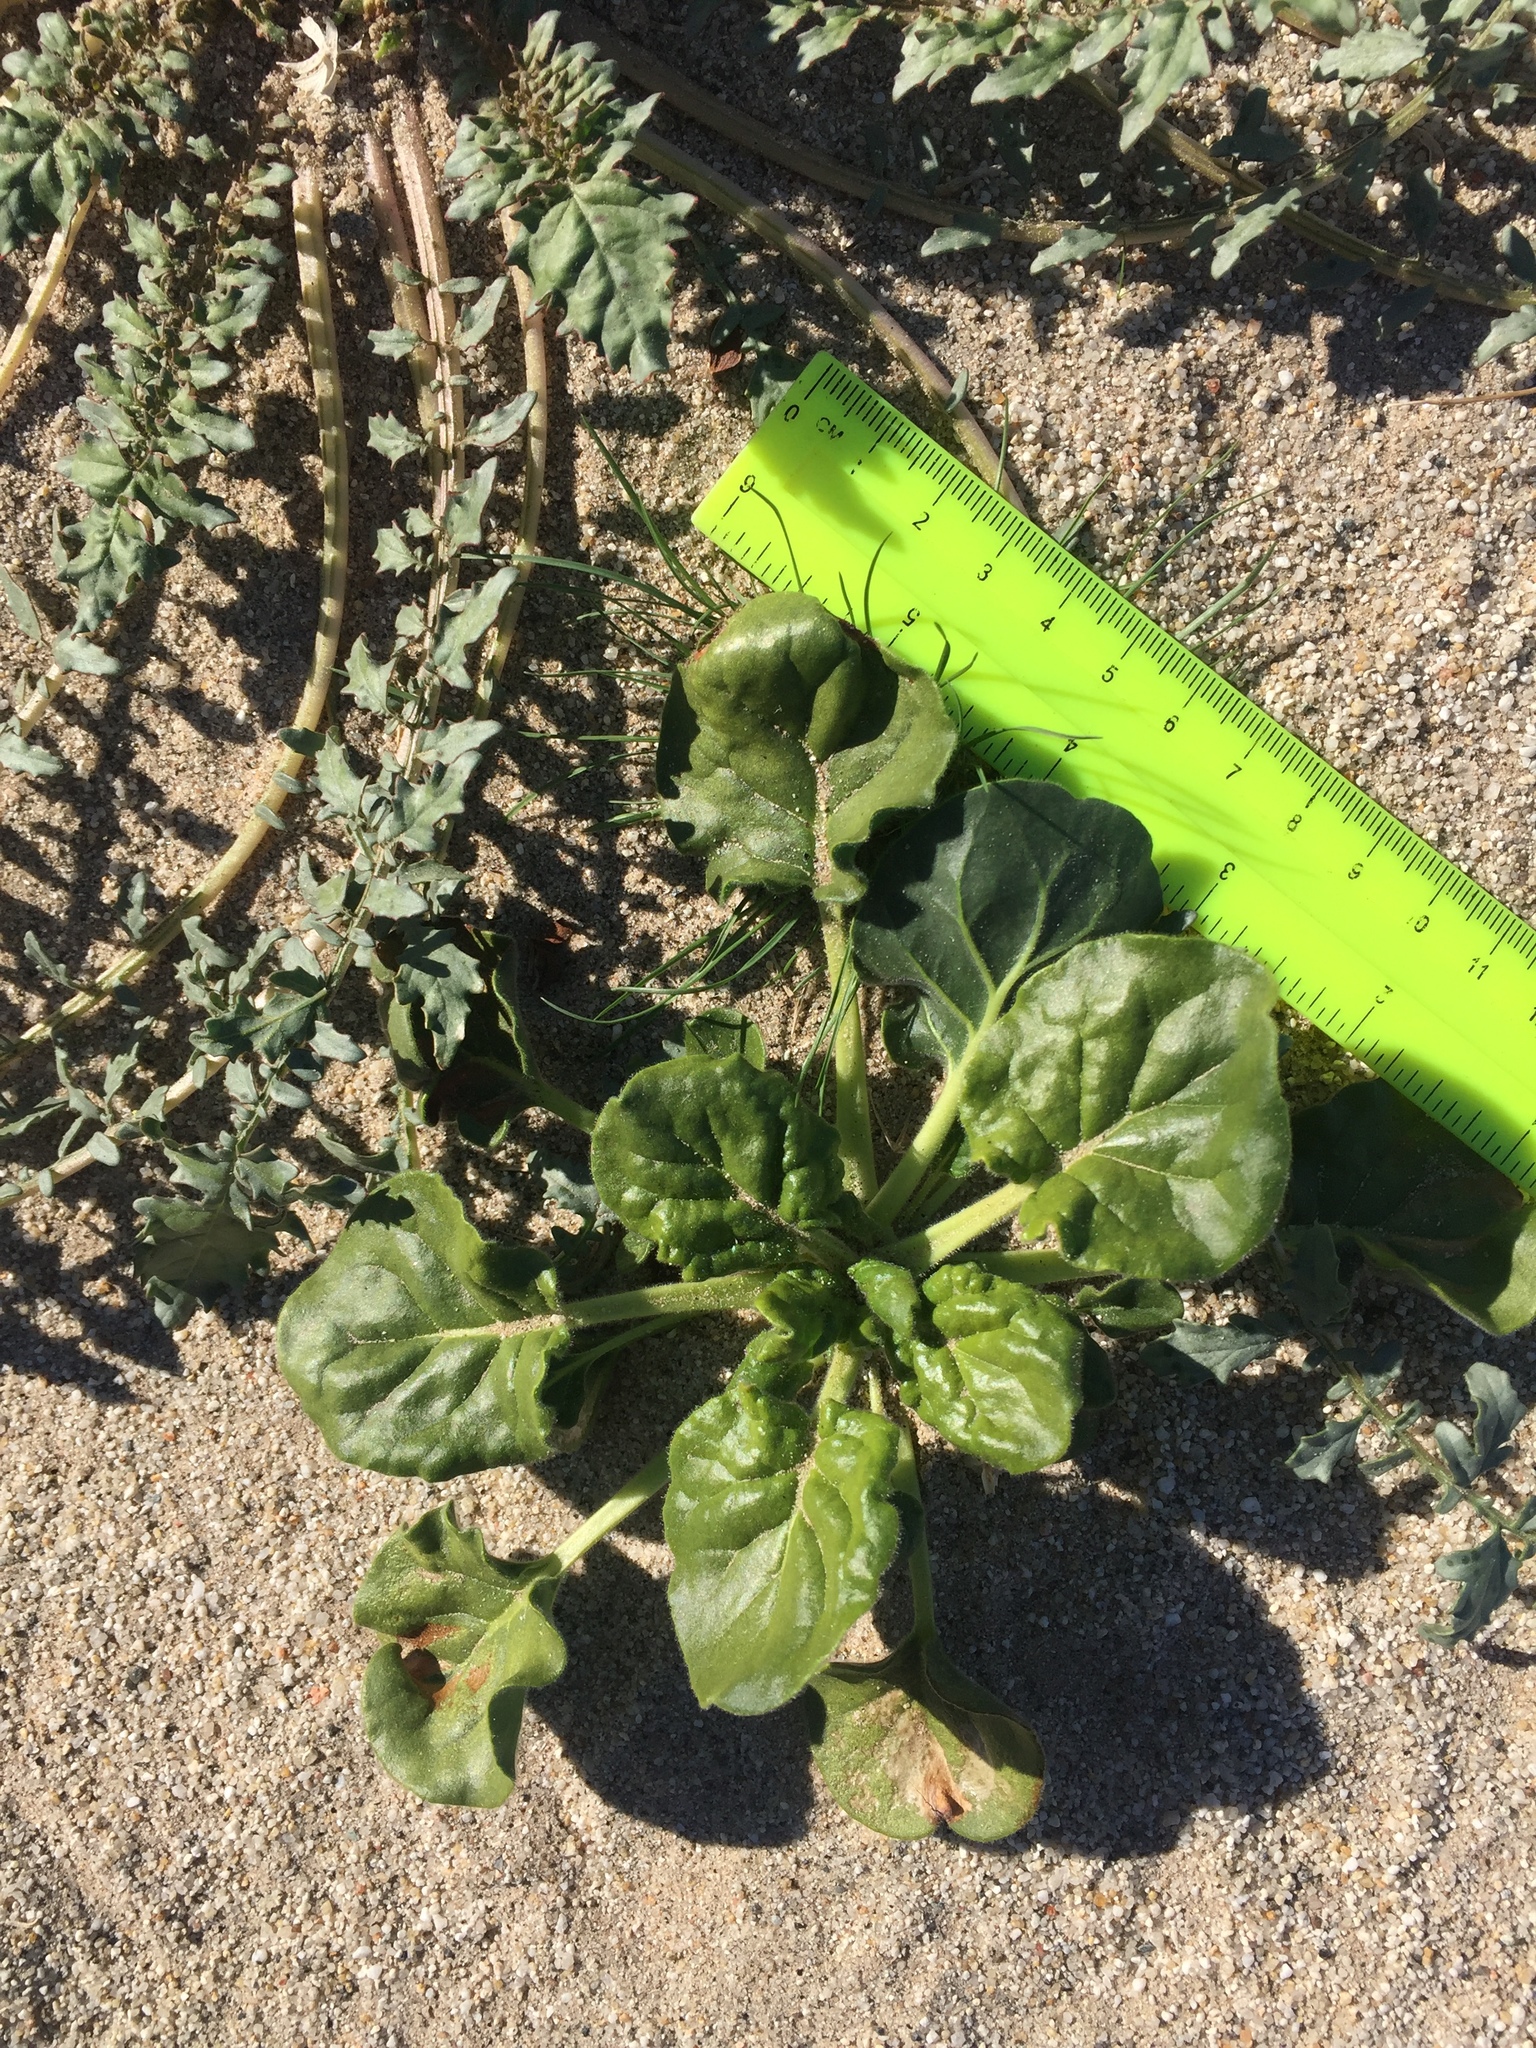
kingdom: Plantae
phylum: Tracheophyta
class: Magnoliopsida
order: Caryophyllales
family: Polygonaceae
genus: Eriogonum
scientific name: Eriogonum trichopes
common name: Little desert trumpet
